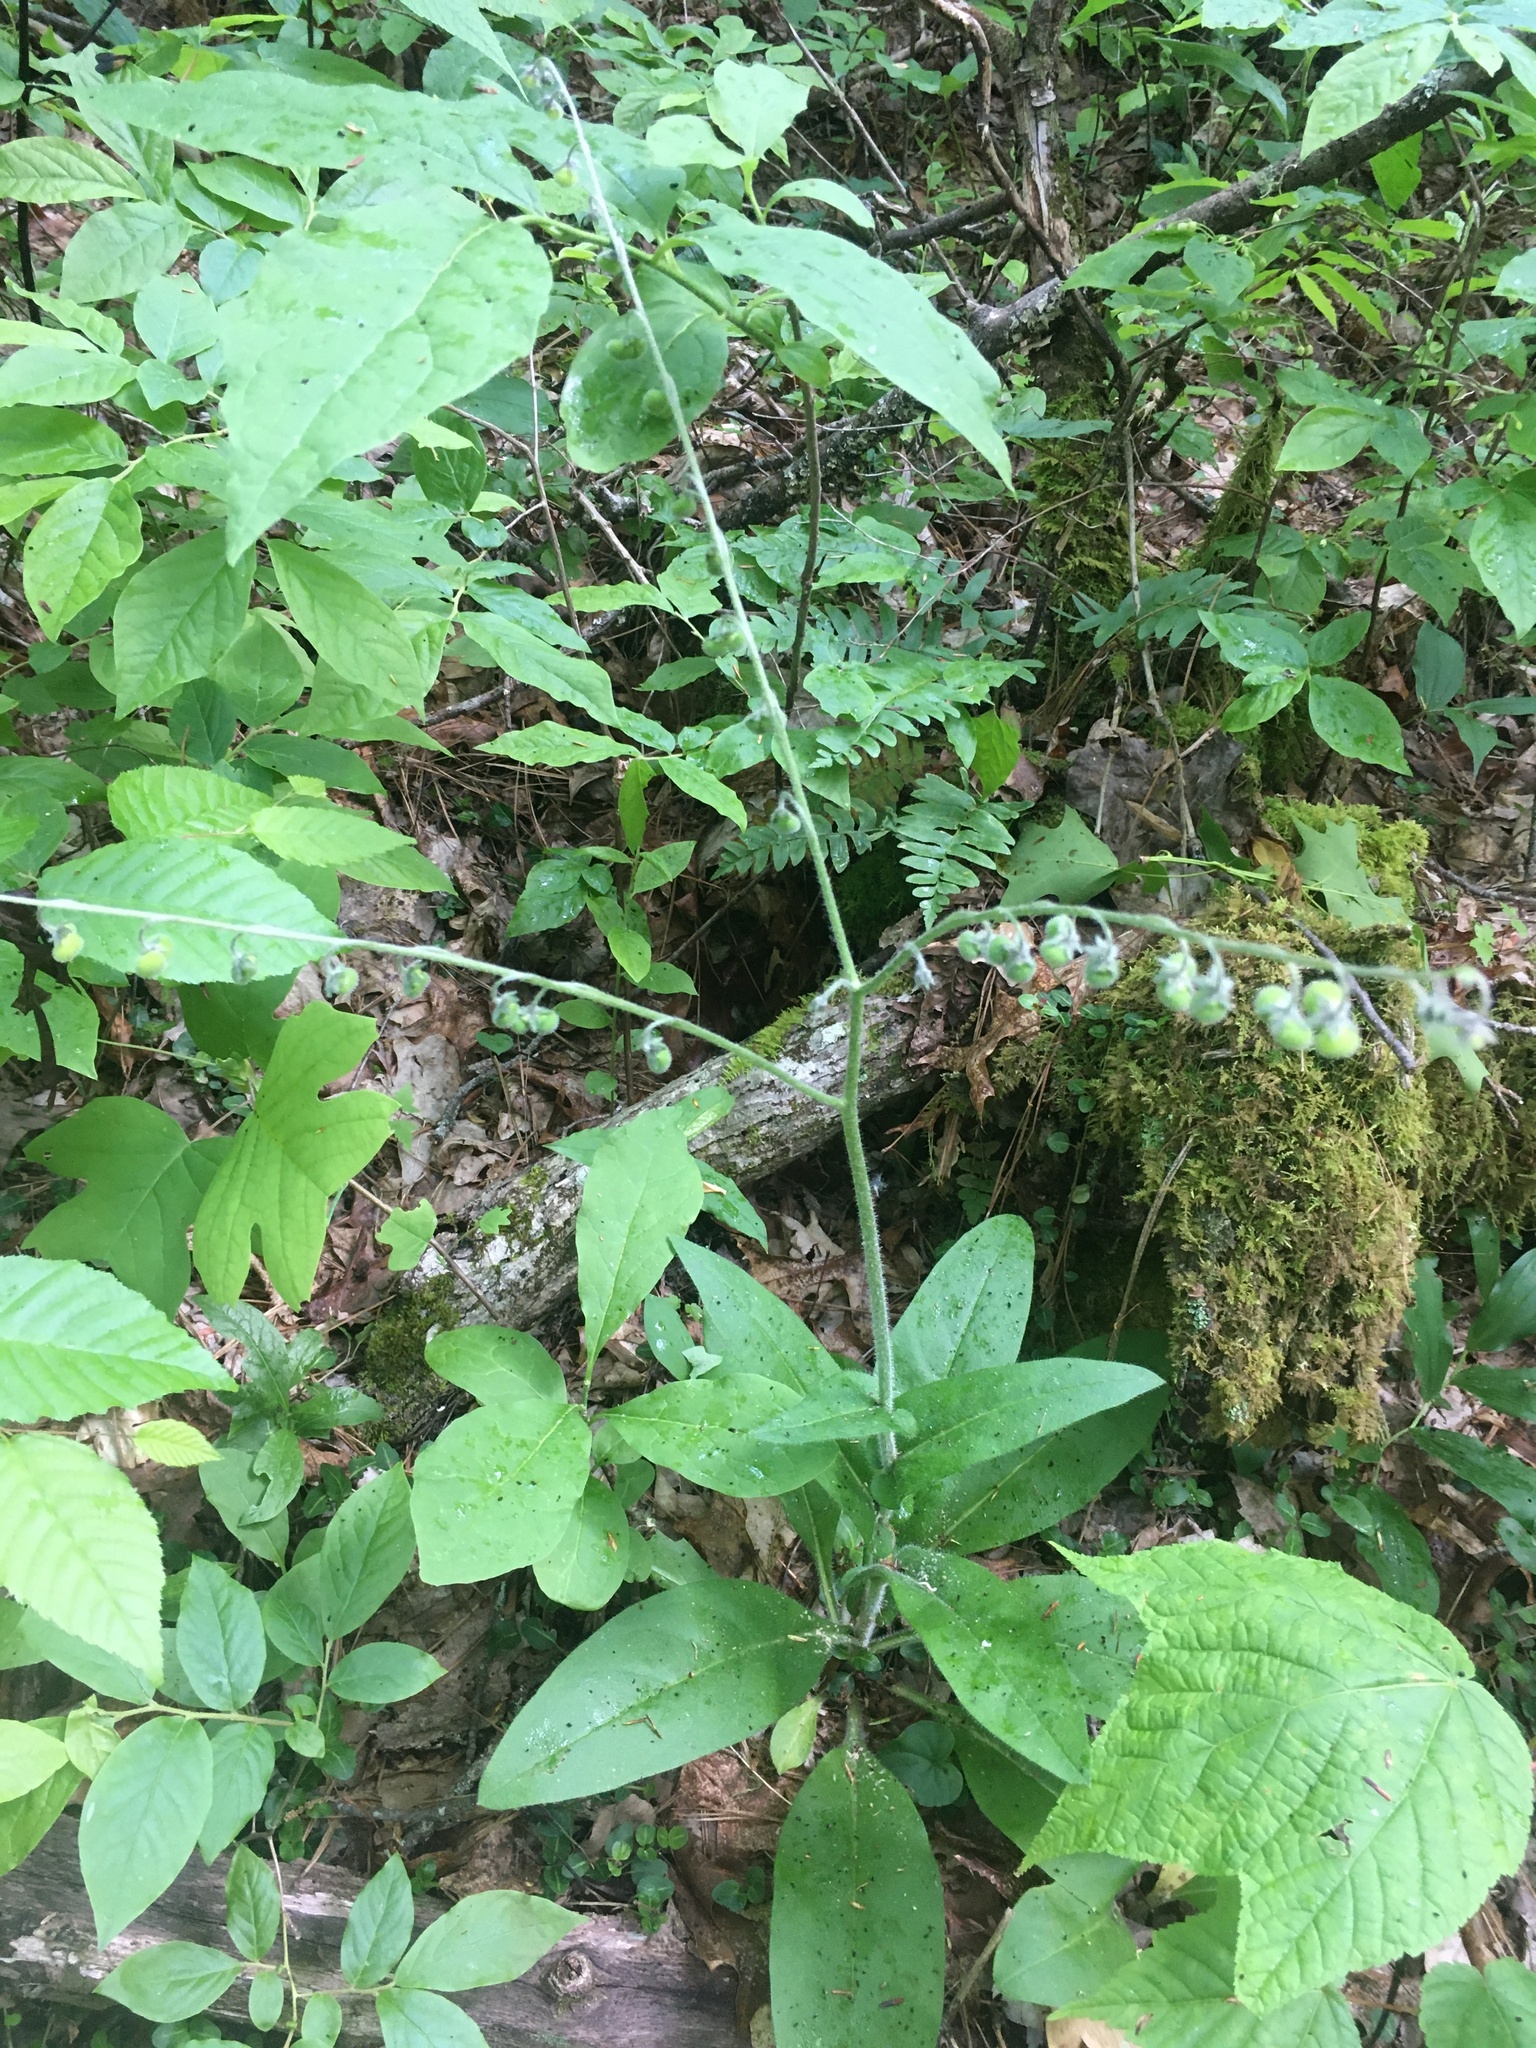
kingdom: Plantae
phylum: Tracheophyta
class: Magnoliopsida
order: Boraginales
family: Boraginaceae
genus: Andersonglossum
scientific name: Andersonglossum virginianum
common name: Wild comfrey
